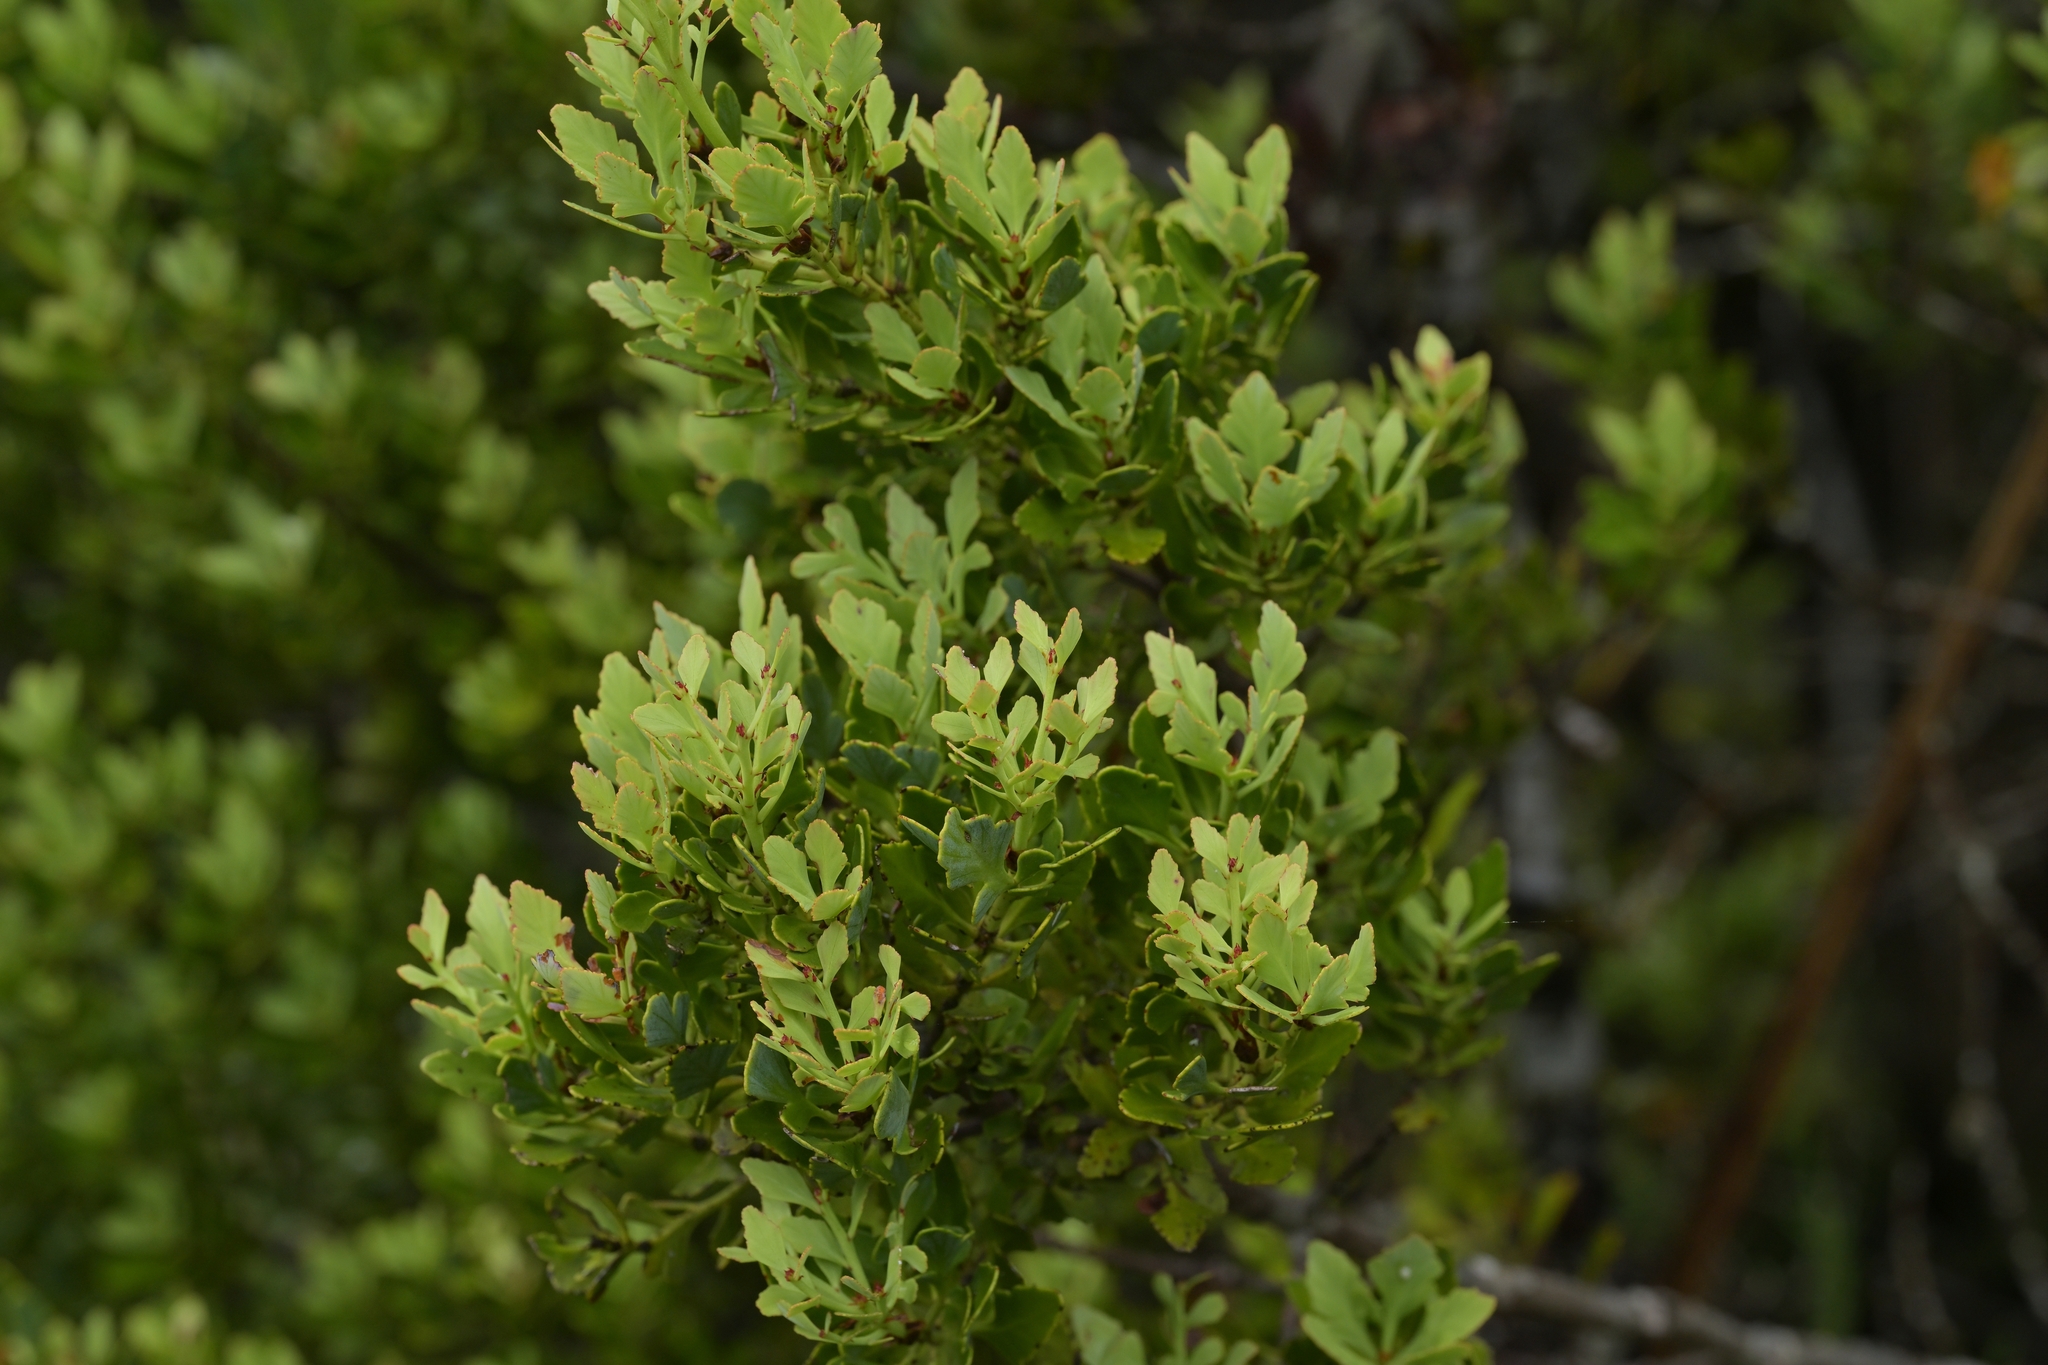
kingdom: Plantae
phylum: Tracheophyta
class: Pinopsida
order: Pinales
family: Phyllocladaceae
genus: Phyllocladus
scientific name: Phyllocladus trichomanoides
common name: Celery pine
